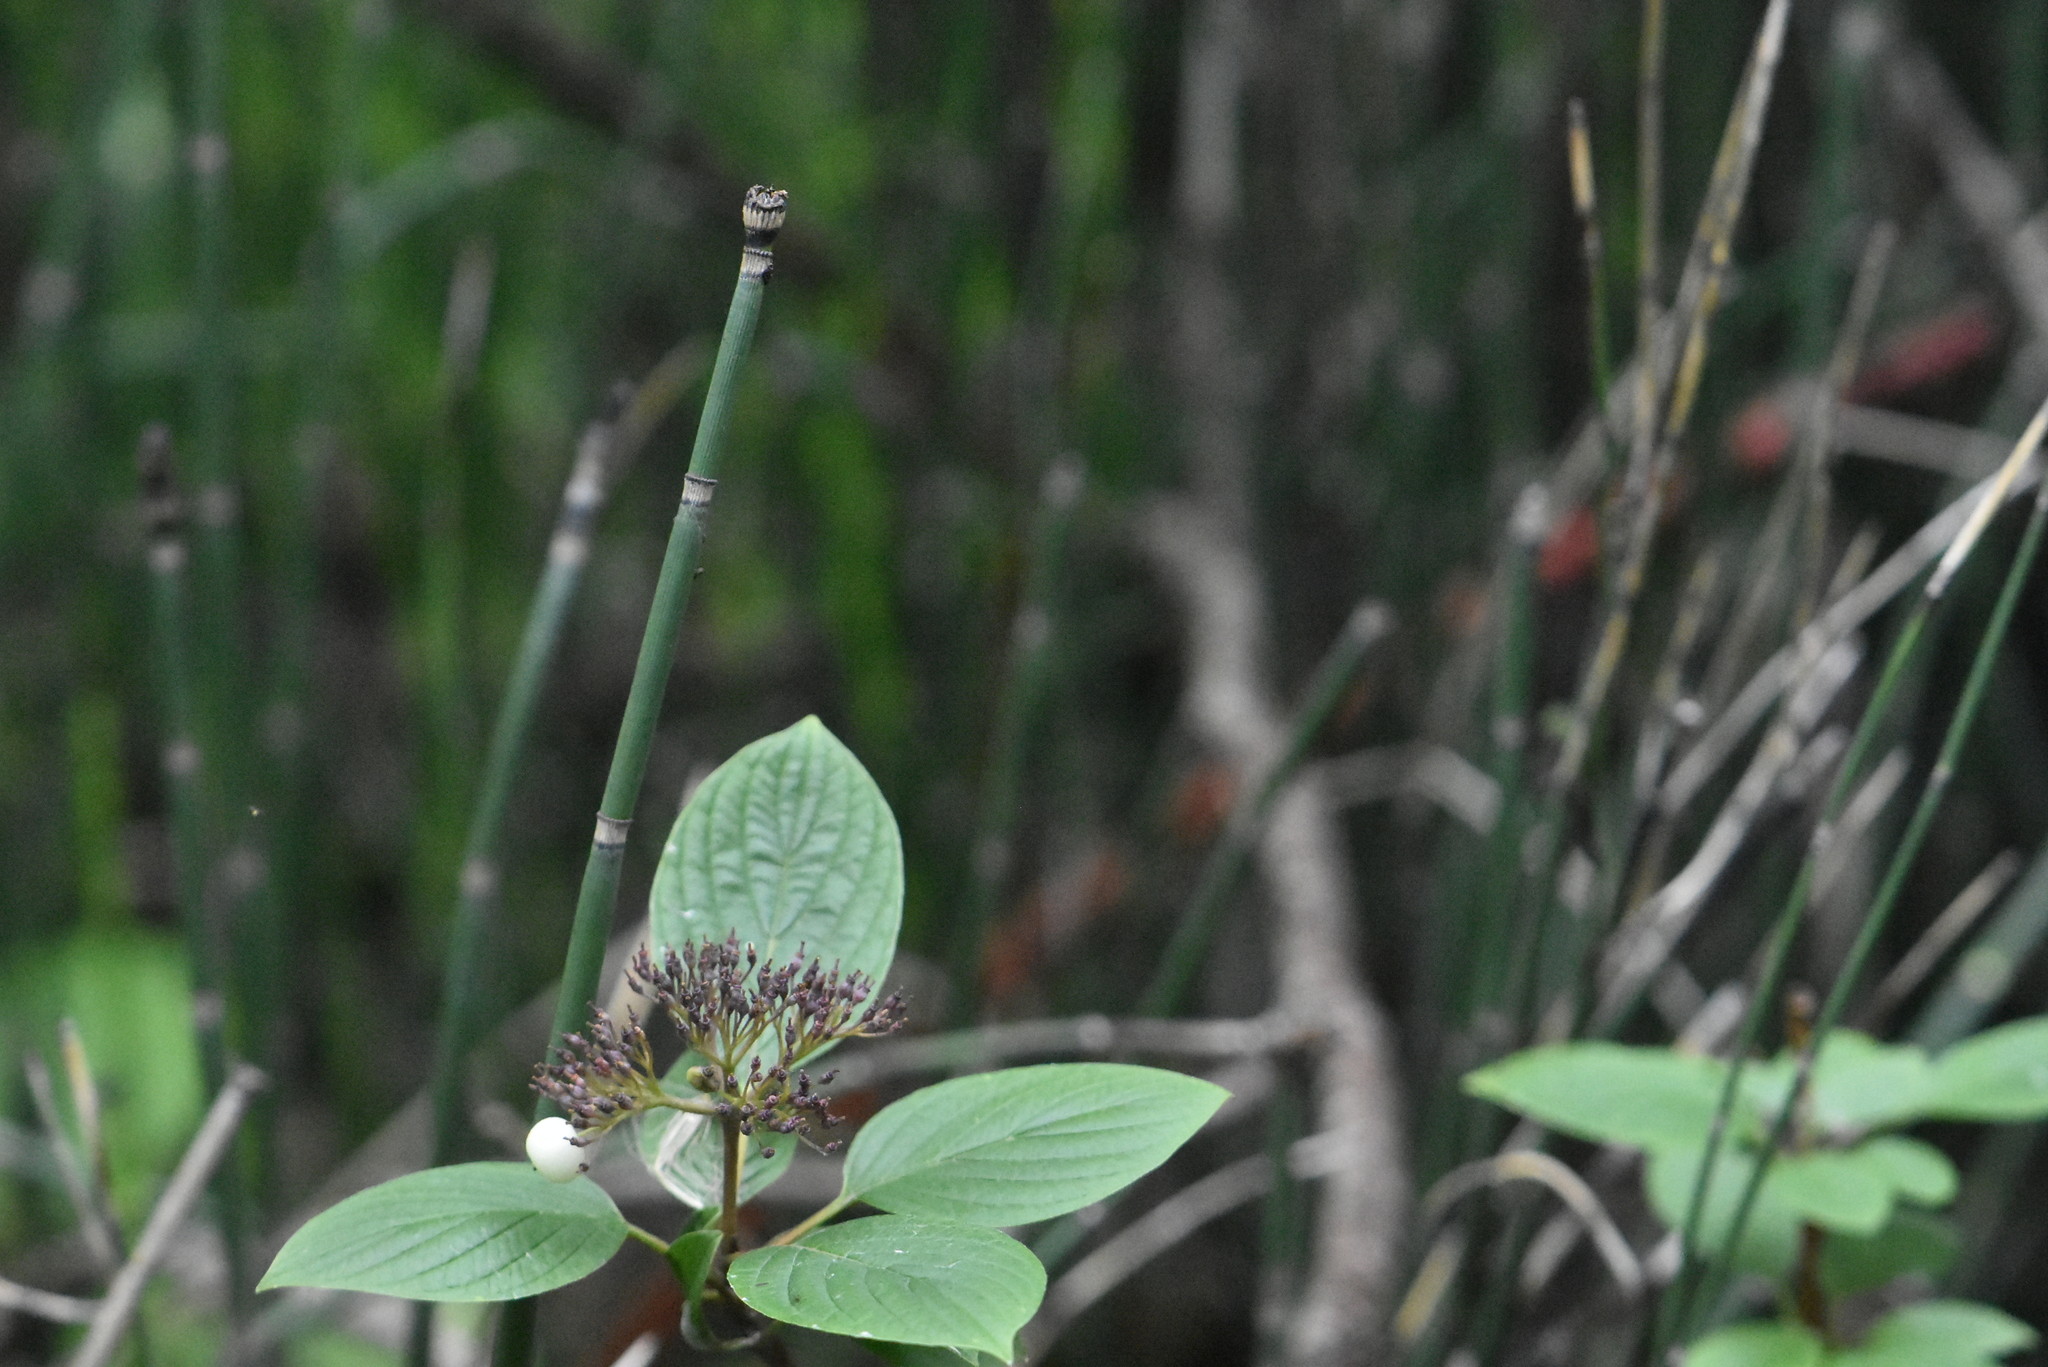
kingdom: Plantae
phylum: Tracheophyta
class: Magnoliopsida
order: Cornales
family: Cornaceae
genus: Cornus
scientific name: Cornus alba
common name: White dogwood
